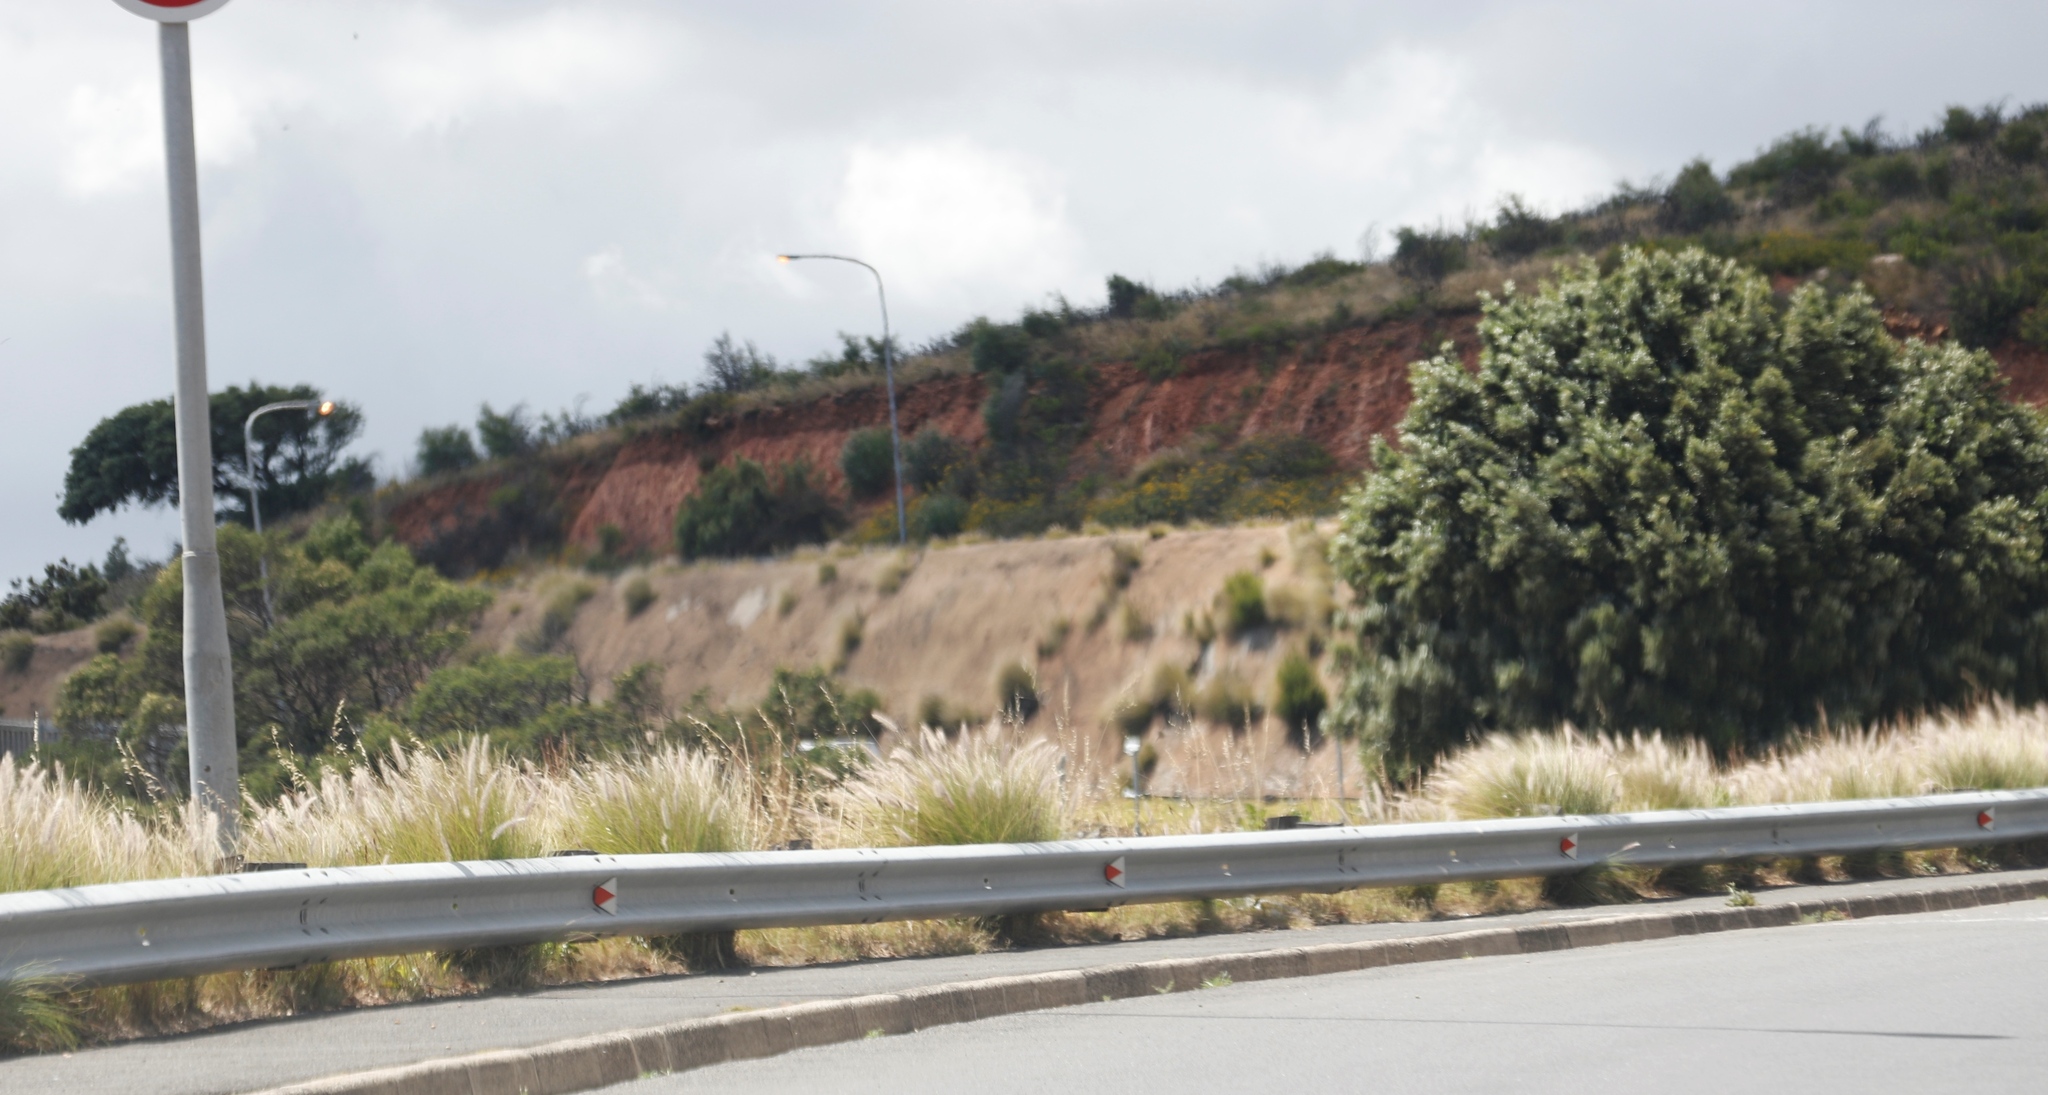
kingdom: Plantae
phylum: Tracheophyta
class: Liliopsida
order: Poales
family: Poaceae
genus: Cenchrus
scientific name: Cenchrus setaceus
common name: Crimson fountaingrass
